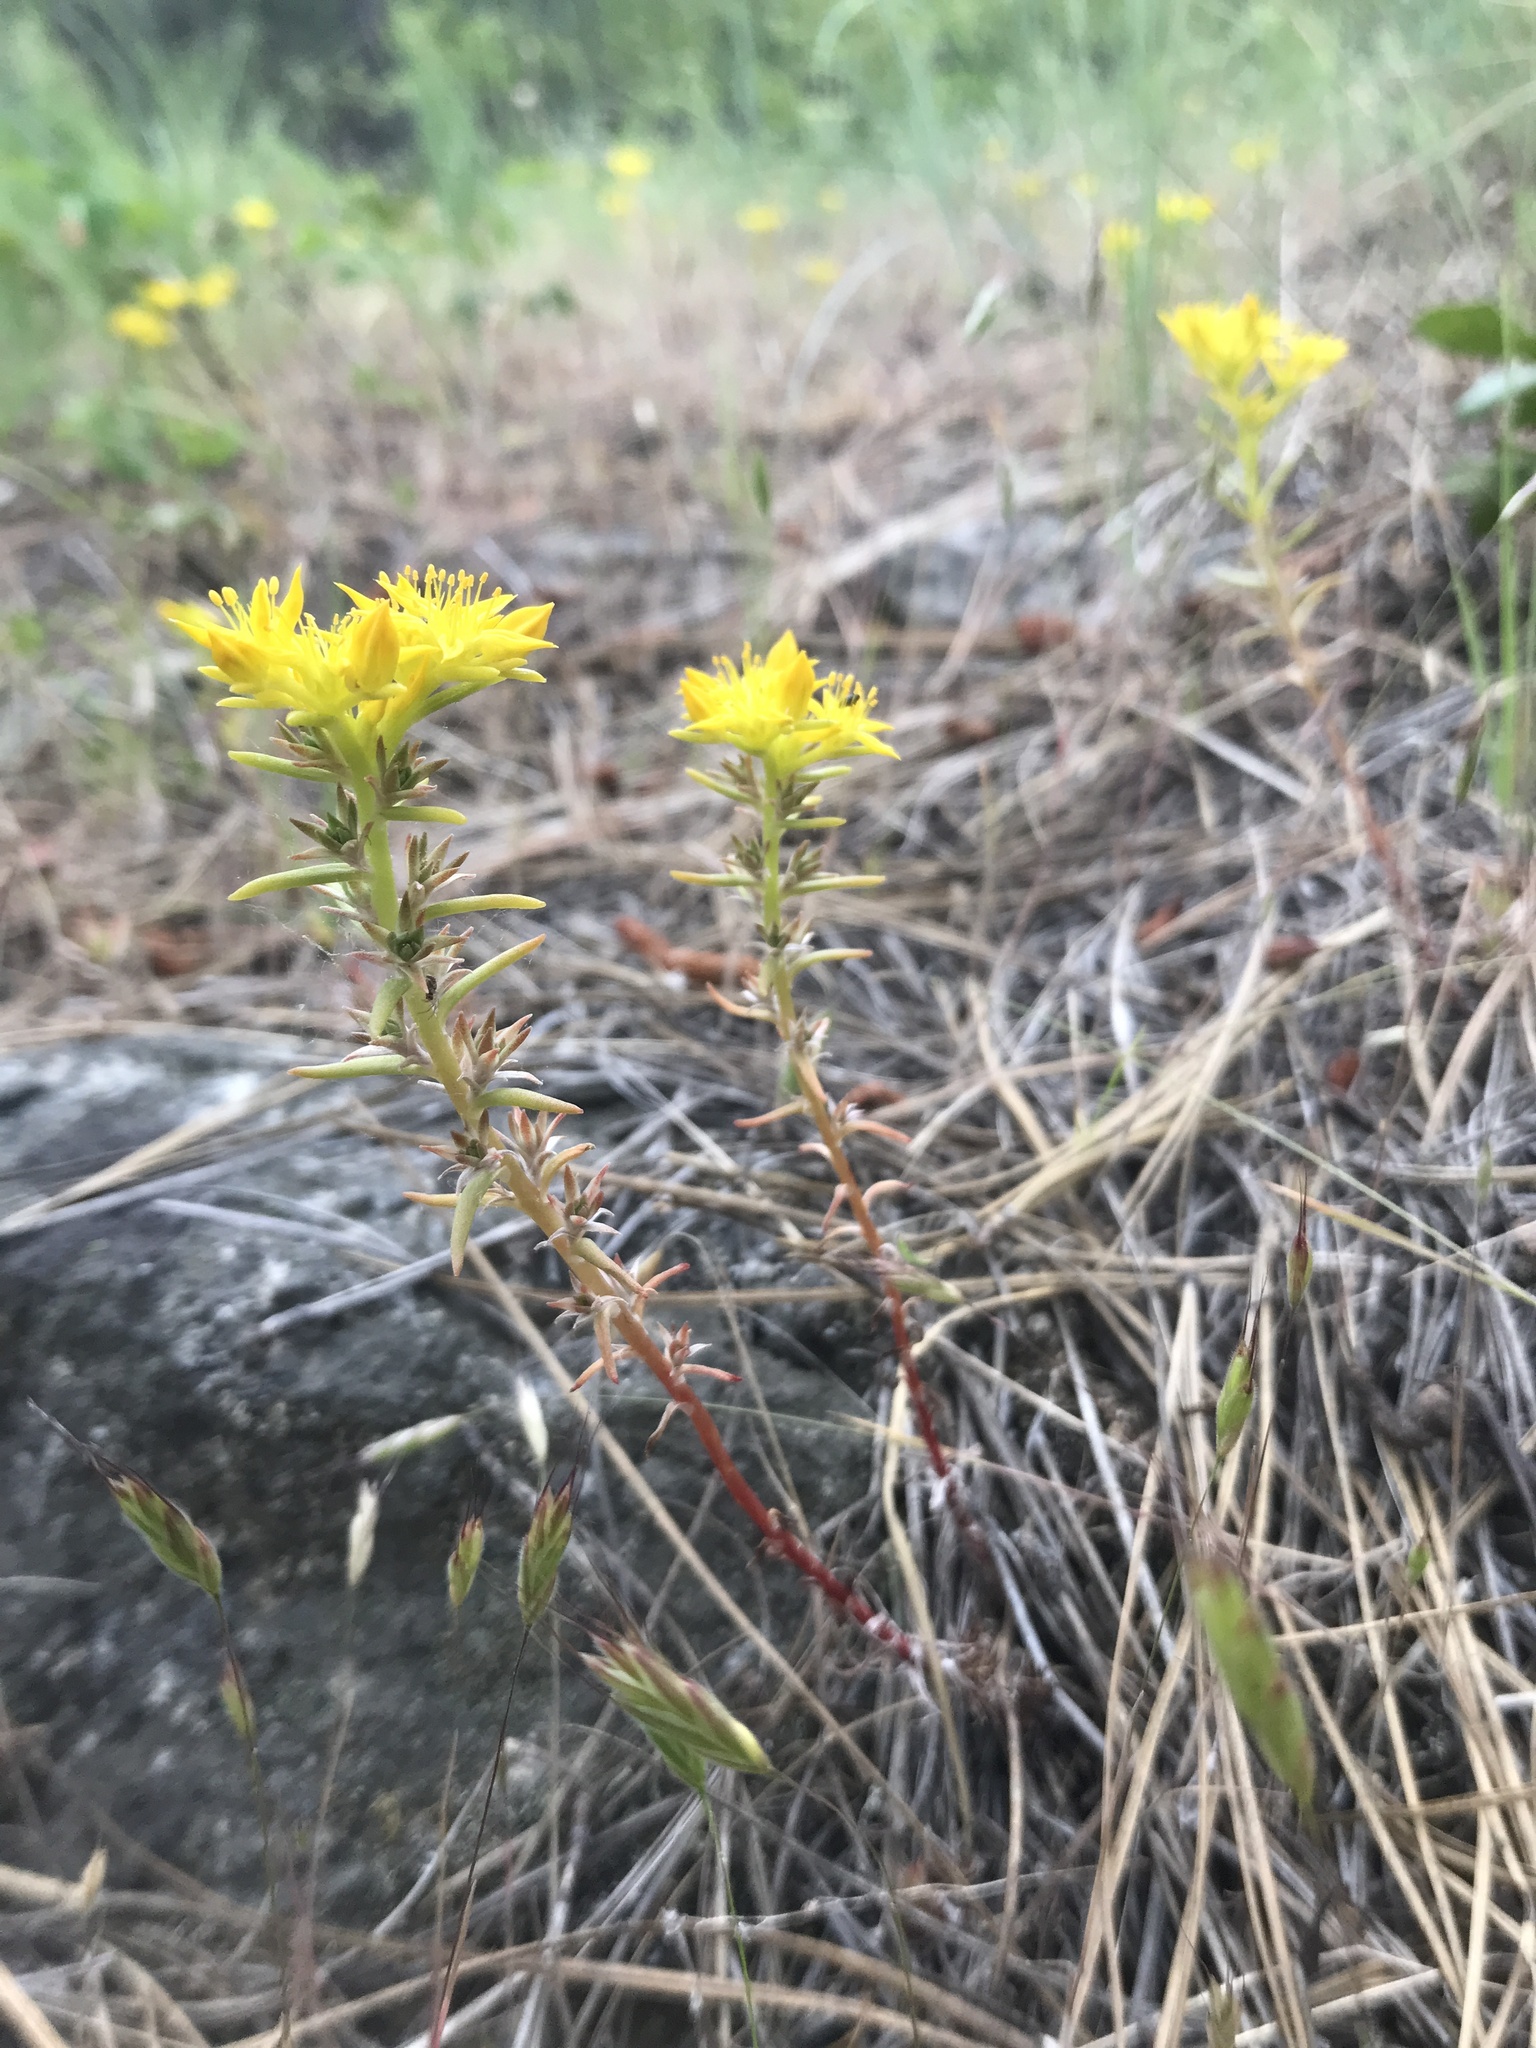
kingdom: Plantae
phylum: Tracheophyta
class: Magnoliopsida
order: Saxifragales
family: Crassulaceae
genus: Sedum
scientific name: Sedum stenopetalum
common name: Narrow-petaled stonecrop
